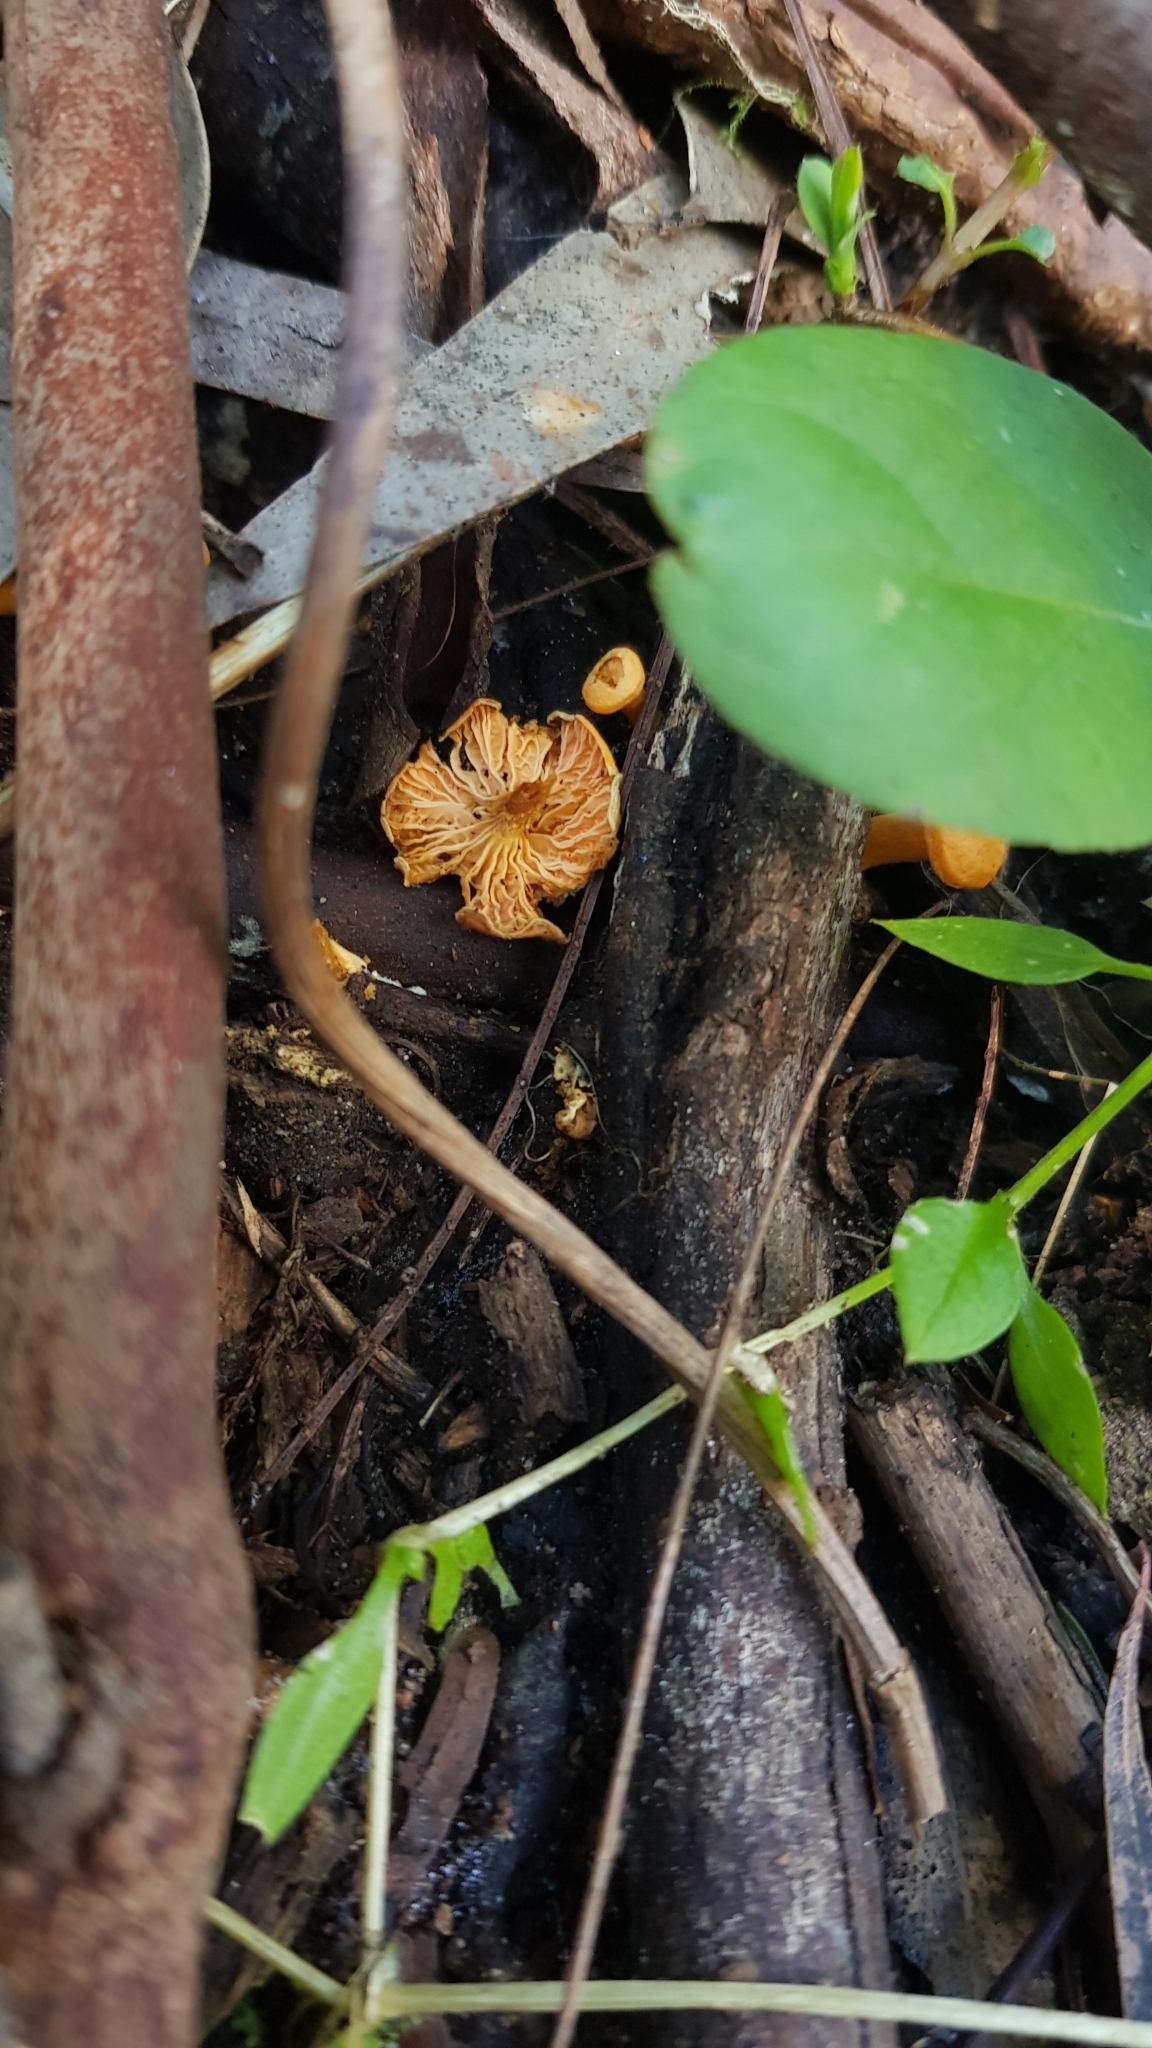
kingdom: Fungi
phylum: Basidiomycota
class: Agaricomycetes
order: Cantharellales
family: Hydnaceae
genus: Cantharellus
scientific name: Cantharellus
